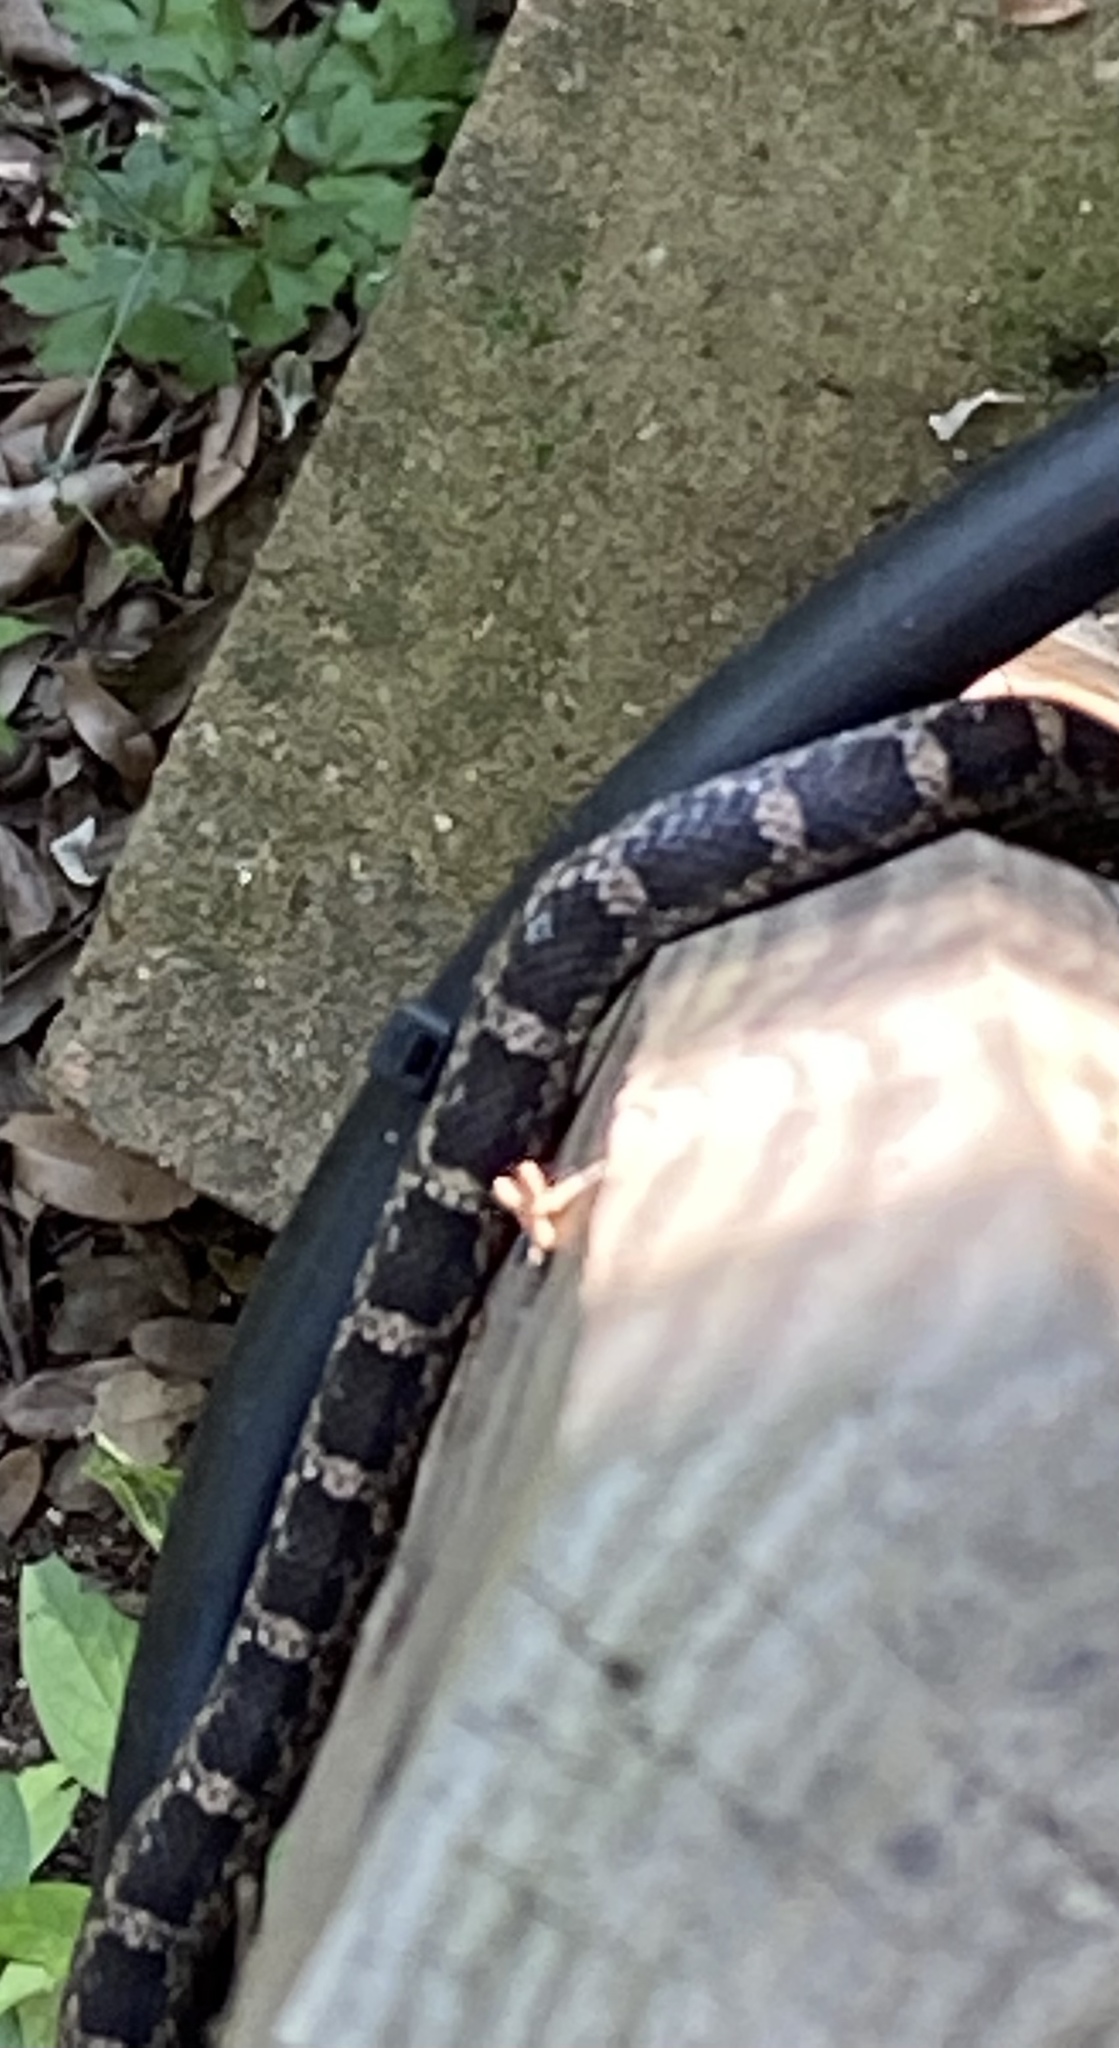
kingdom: Animalia
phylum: Chordata
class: Squamata
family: Colubridae
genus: Pantherophis
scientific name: Pantherophis obsoletus
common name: Black rat snake
